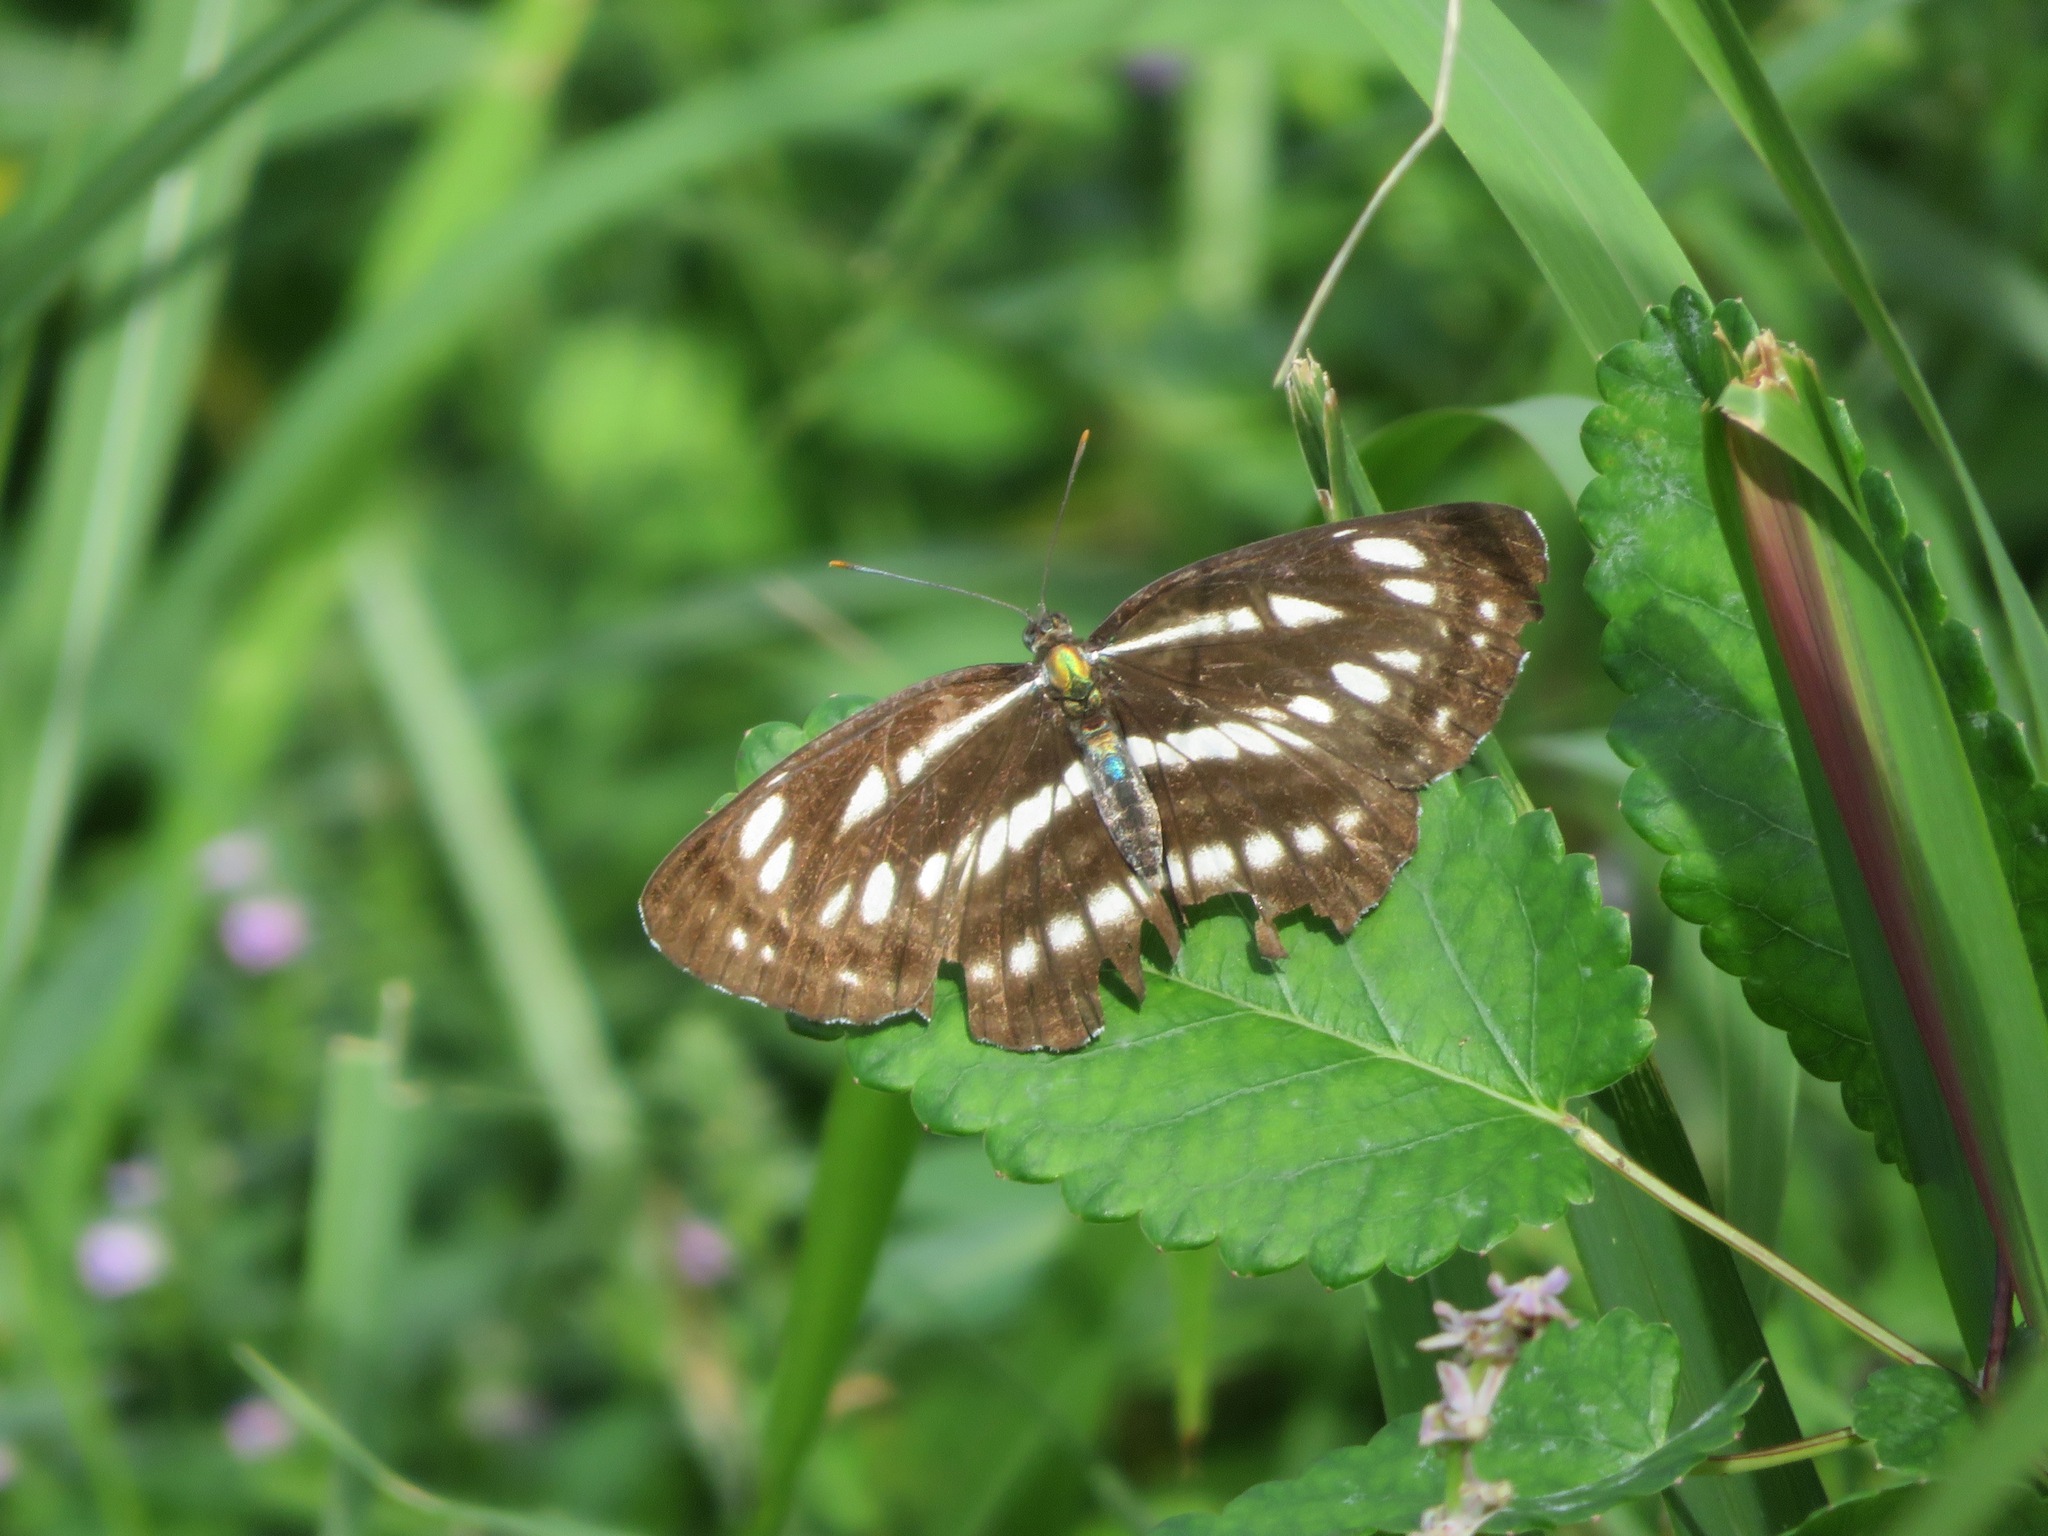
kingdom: Animalia
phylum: Arthropoda
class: Insecta
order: Lepidoptera
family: Nymphalidae
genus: Neptis
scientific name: Neptis sappho
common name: Common glider
